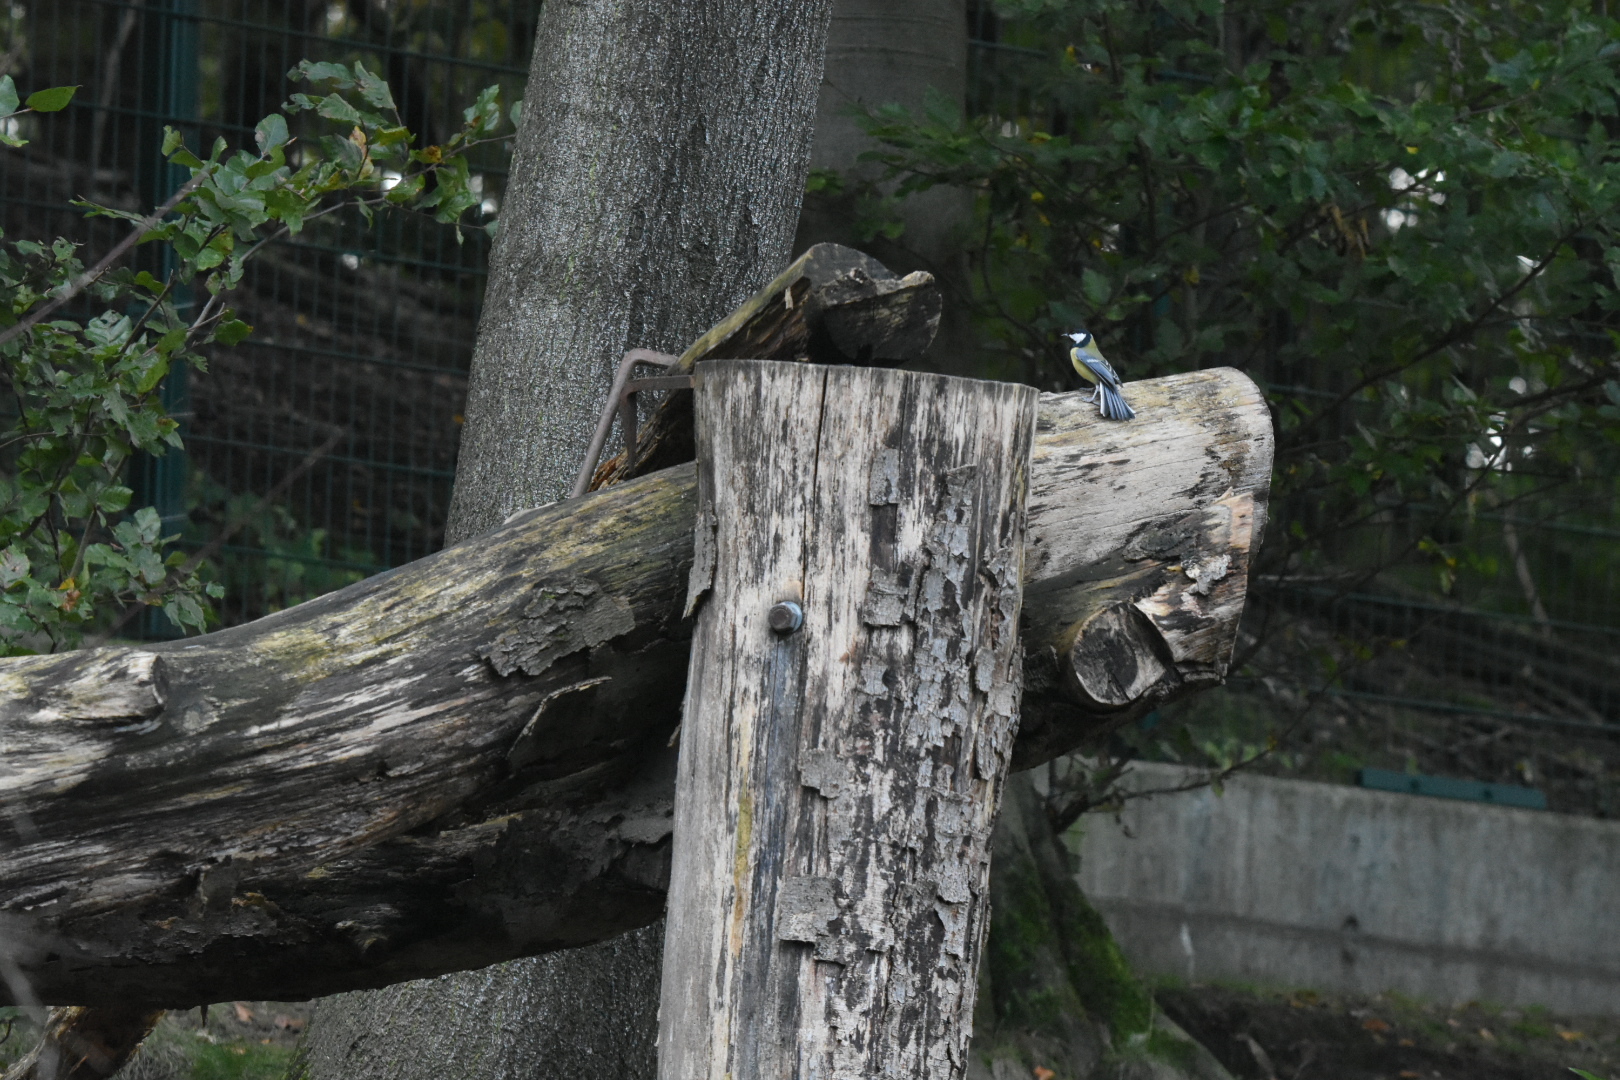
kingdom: Animalia
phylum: Chordata
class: Aves
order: Passeriformes
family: Paridae
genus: Parus
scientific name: Parus major
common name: Great tit
